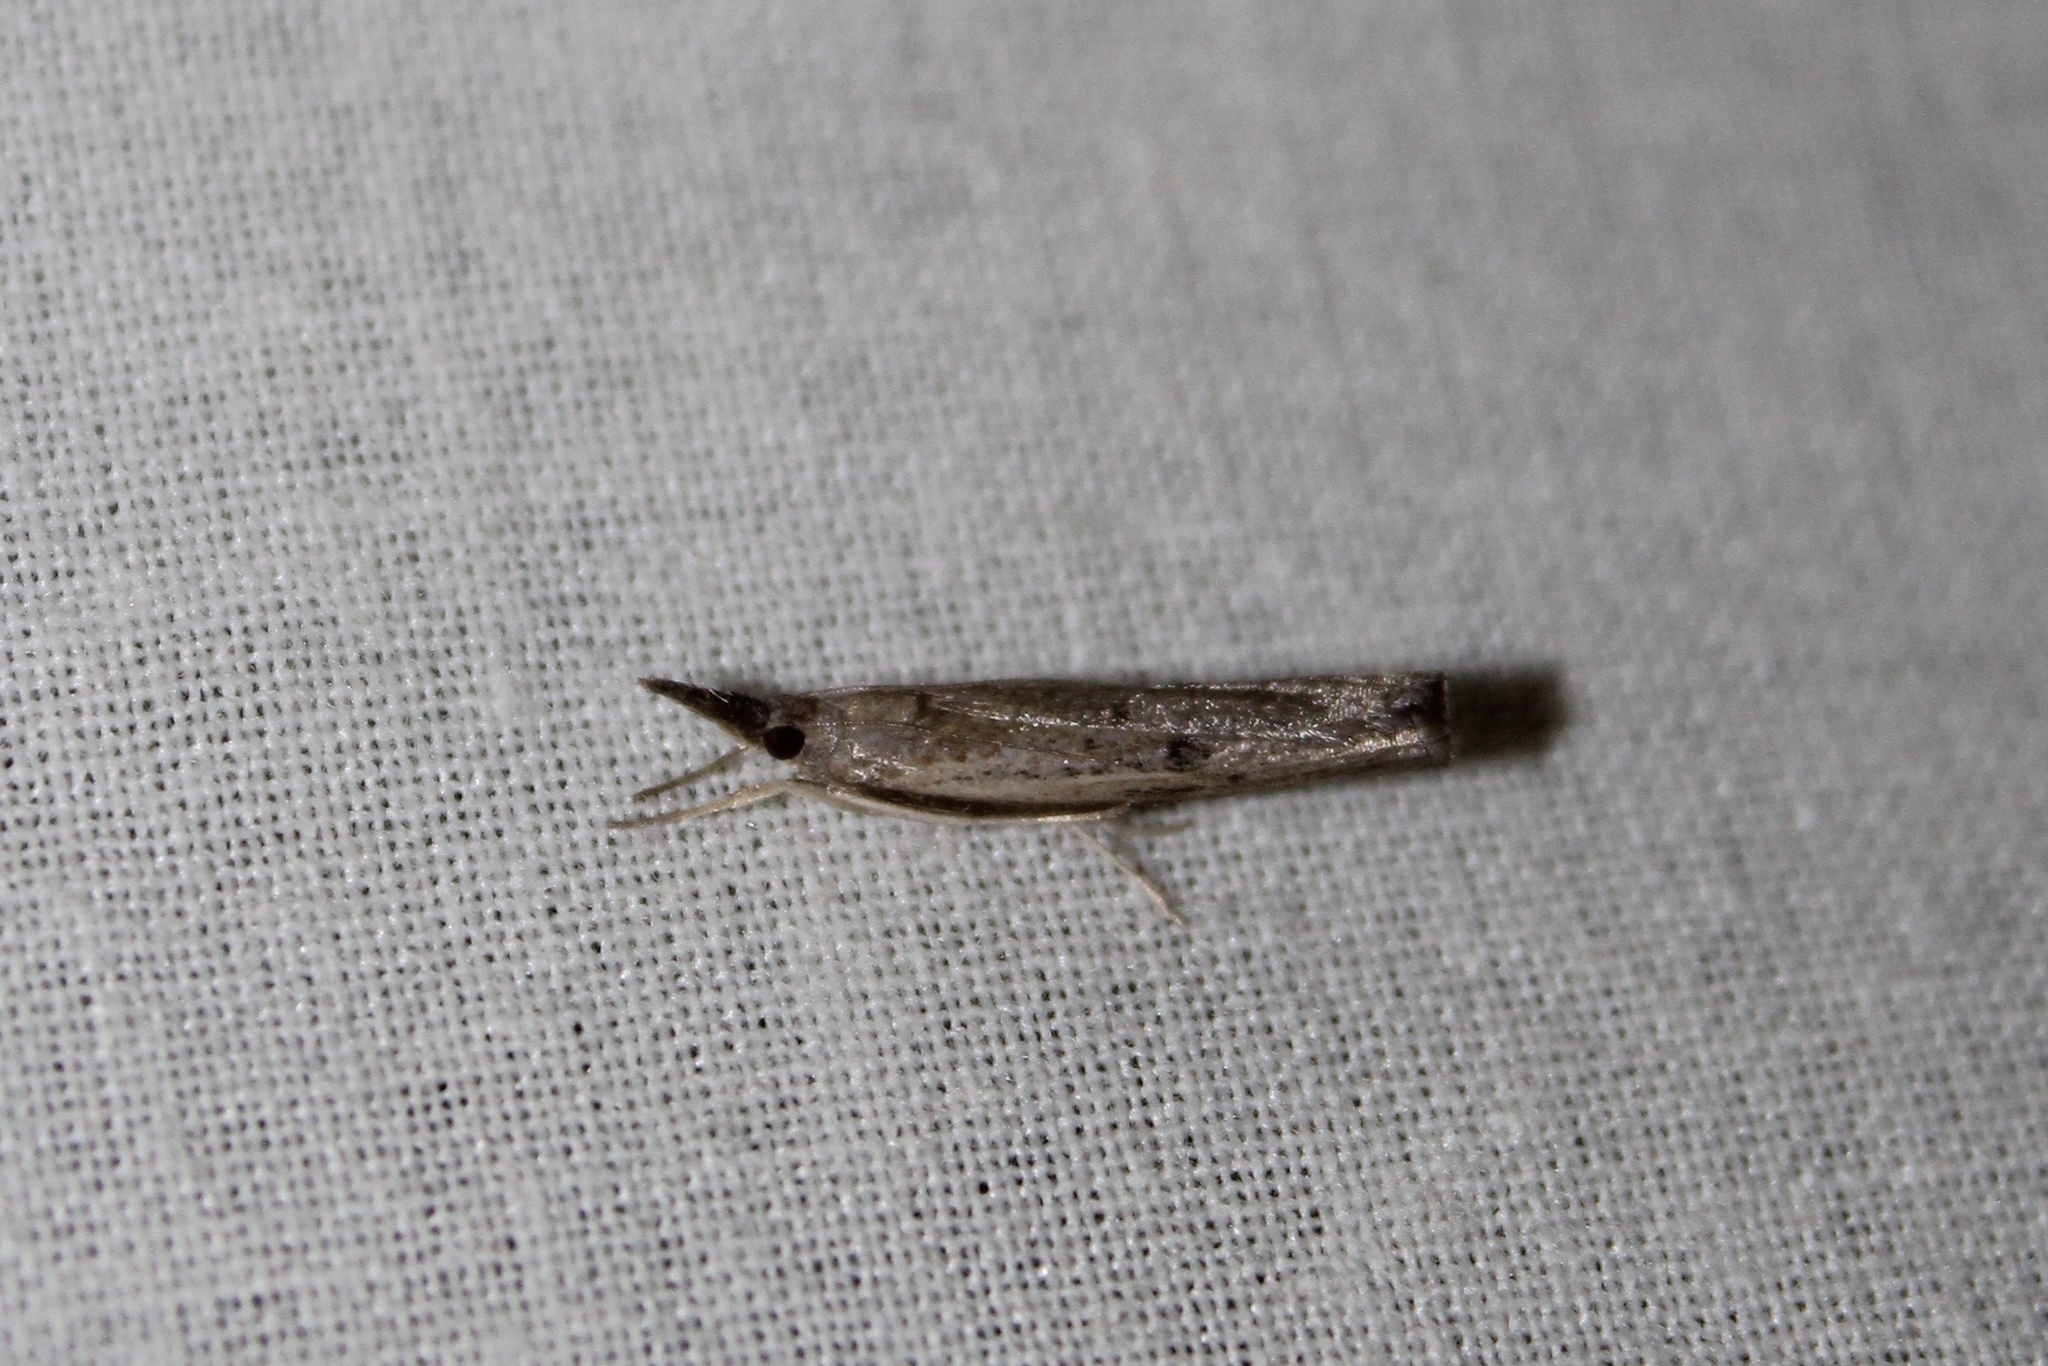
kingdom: Animalia
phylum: Arthropoda
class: Insecta
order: Lepidoptera
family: Crambidae
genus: Fissicrambus
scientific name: Fissicrambus mutabilis
